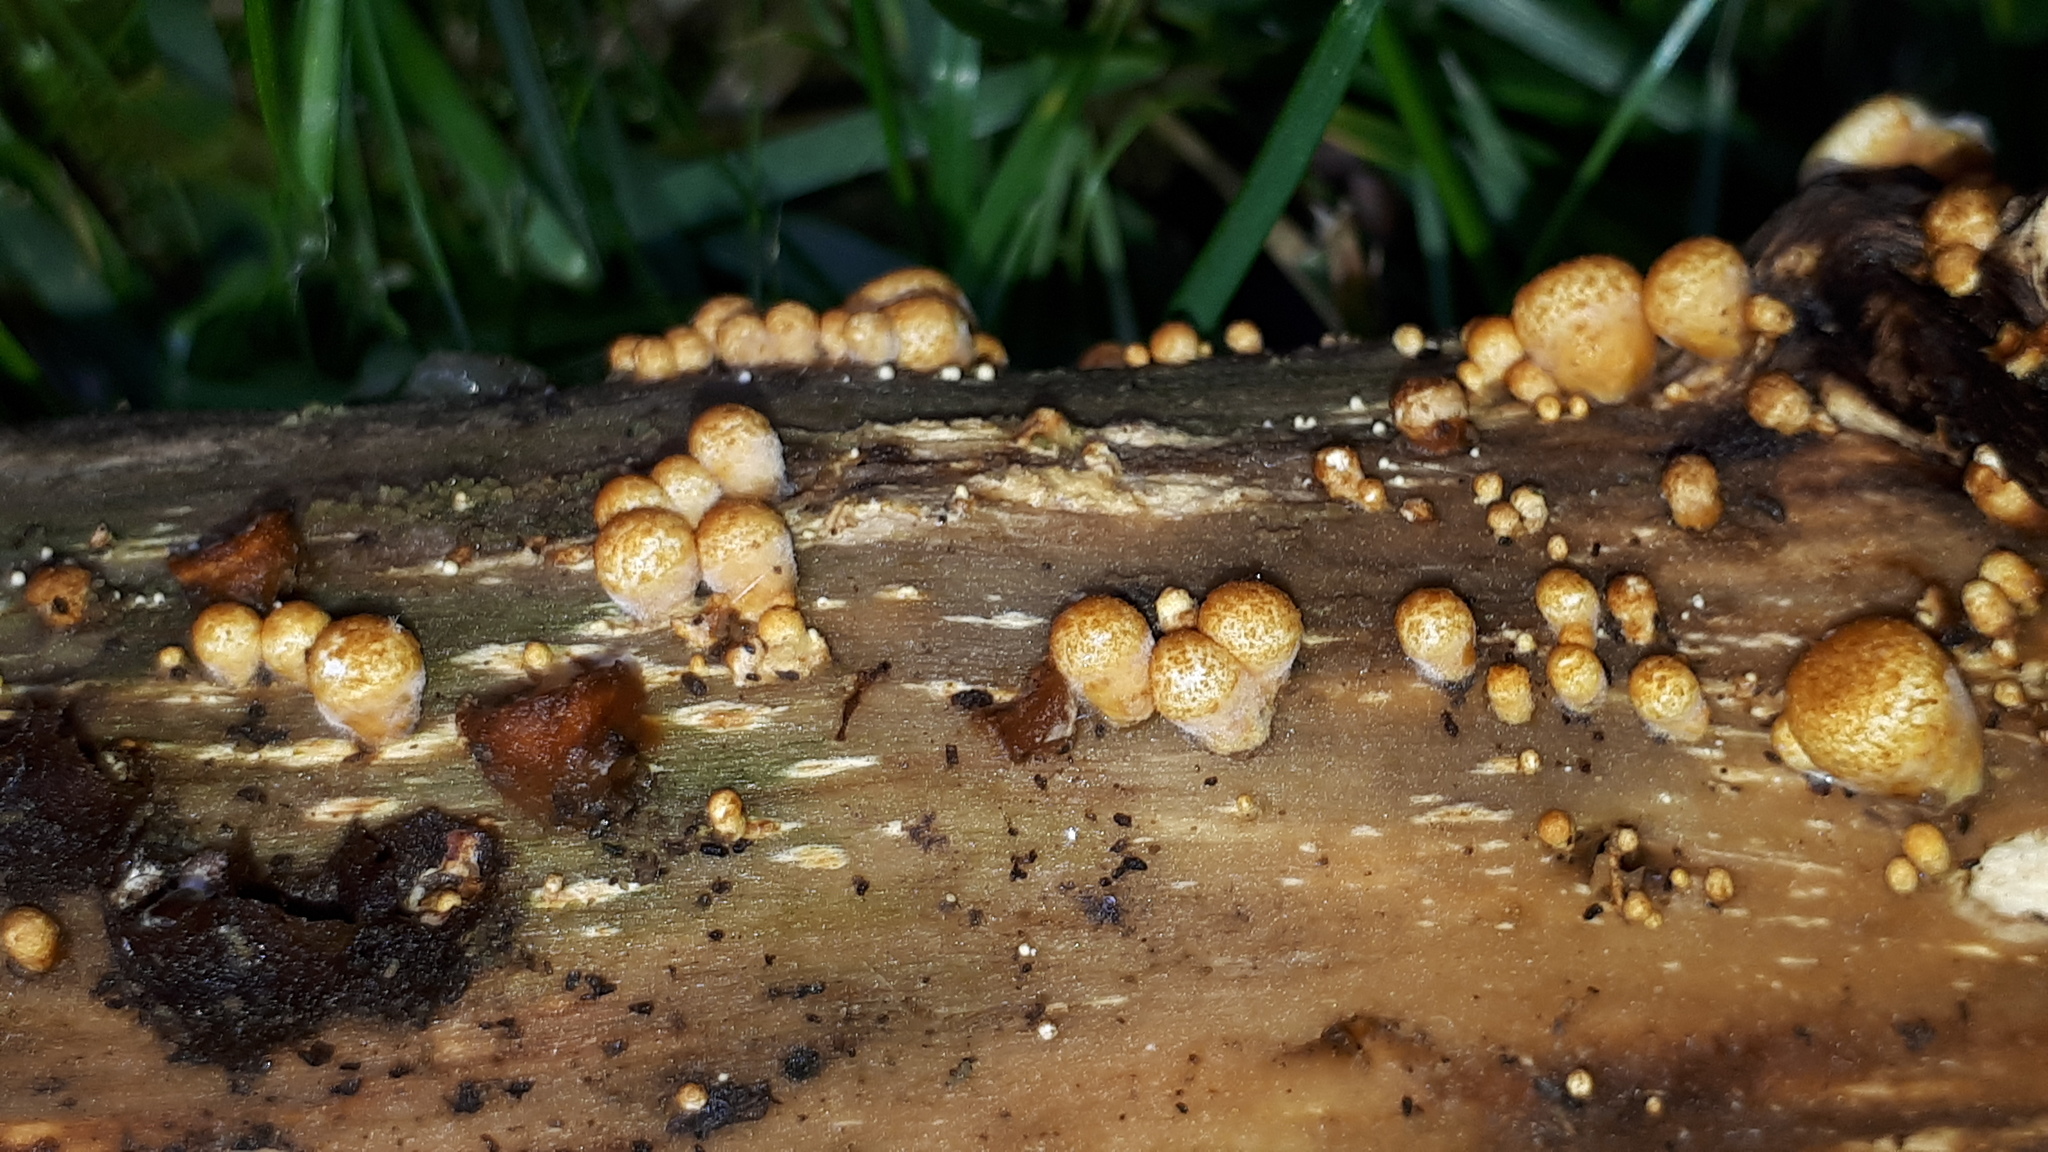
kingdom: Fungi
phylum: Basidiomycota
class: Agaricomycetes
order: Agaricales
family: Nidulariaceae
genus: Crucibulum
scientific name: Crucibulum laeve
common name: Common bird's nest
